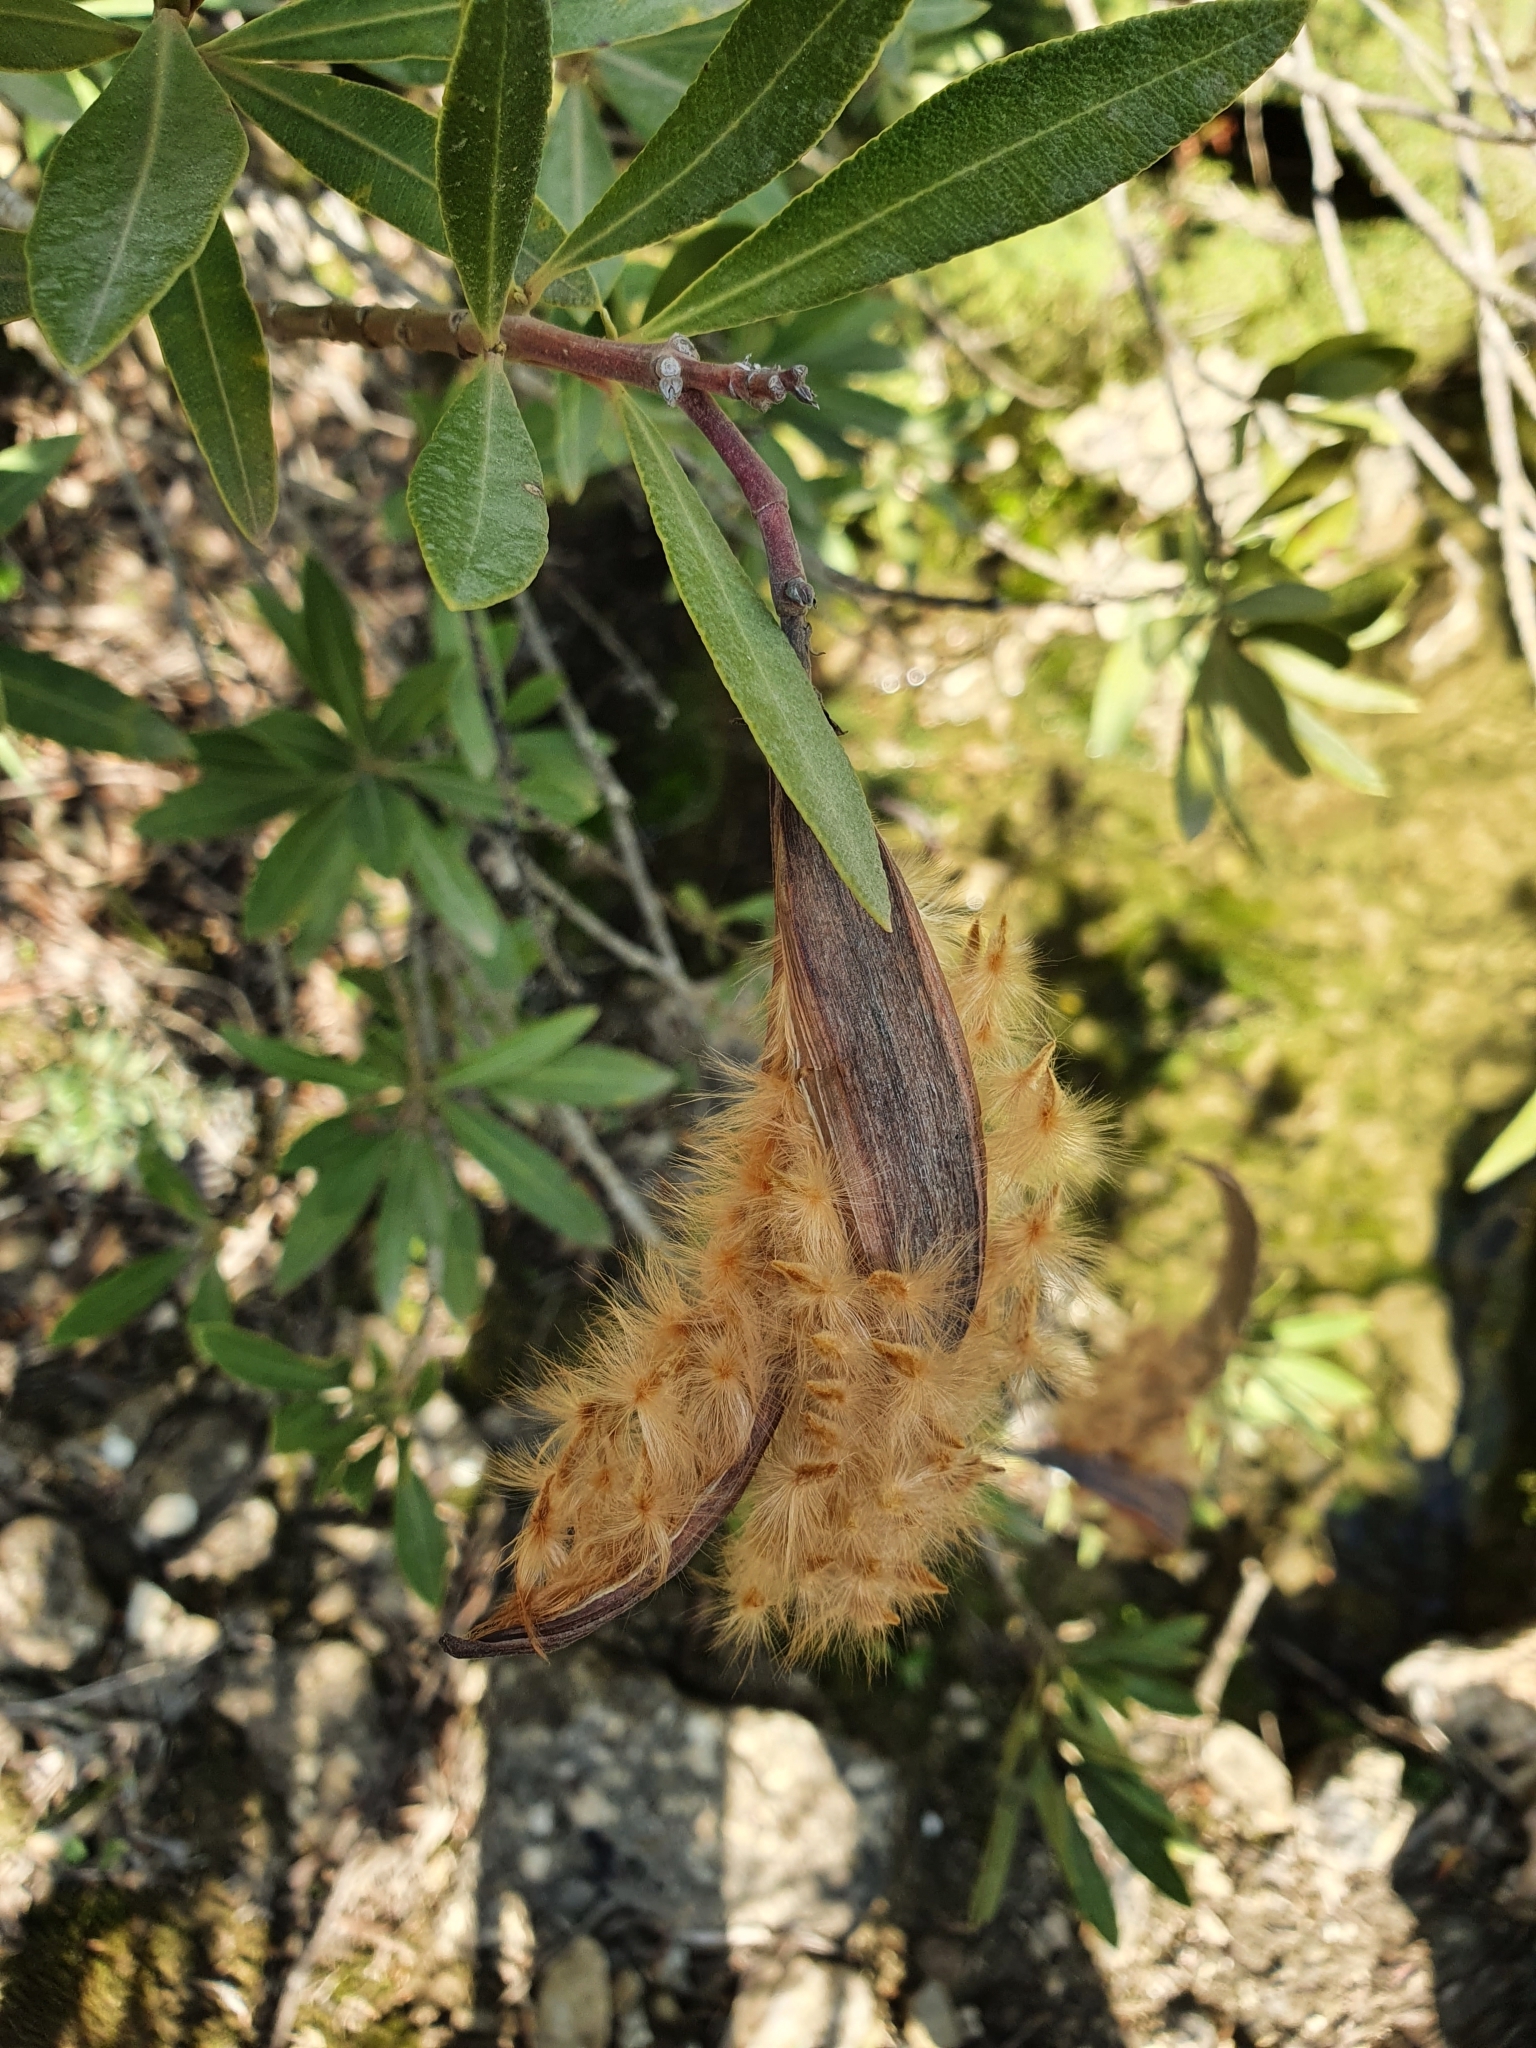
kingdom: Plantae
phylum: Tracheophyta
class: Magnoliopsida
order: Gentianales
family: Apocynaceae
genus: Nerium
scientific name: Nerium oleander
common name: Oleander
